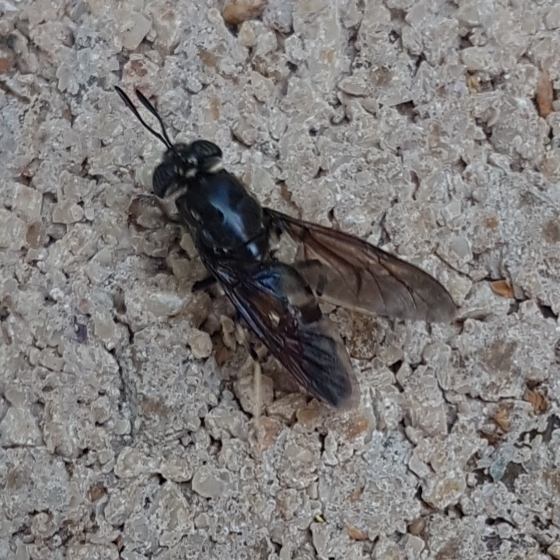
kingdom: Animalia
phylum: Arthropoda
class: Insecta
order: Diptera
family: Stratiomyidae
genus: Hermetia
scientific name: Hermetia illucens
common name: Black soldier fly
